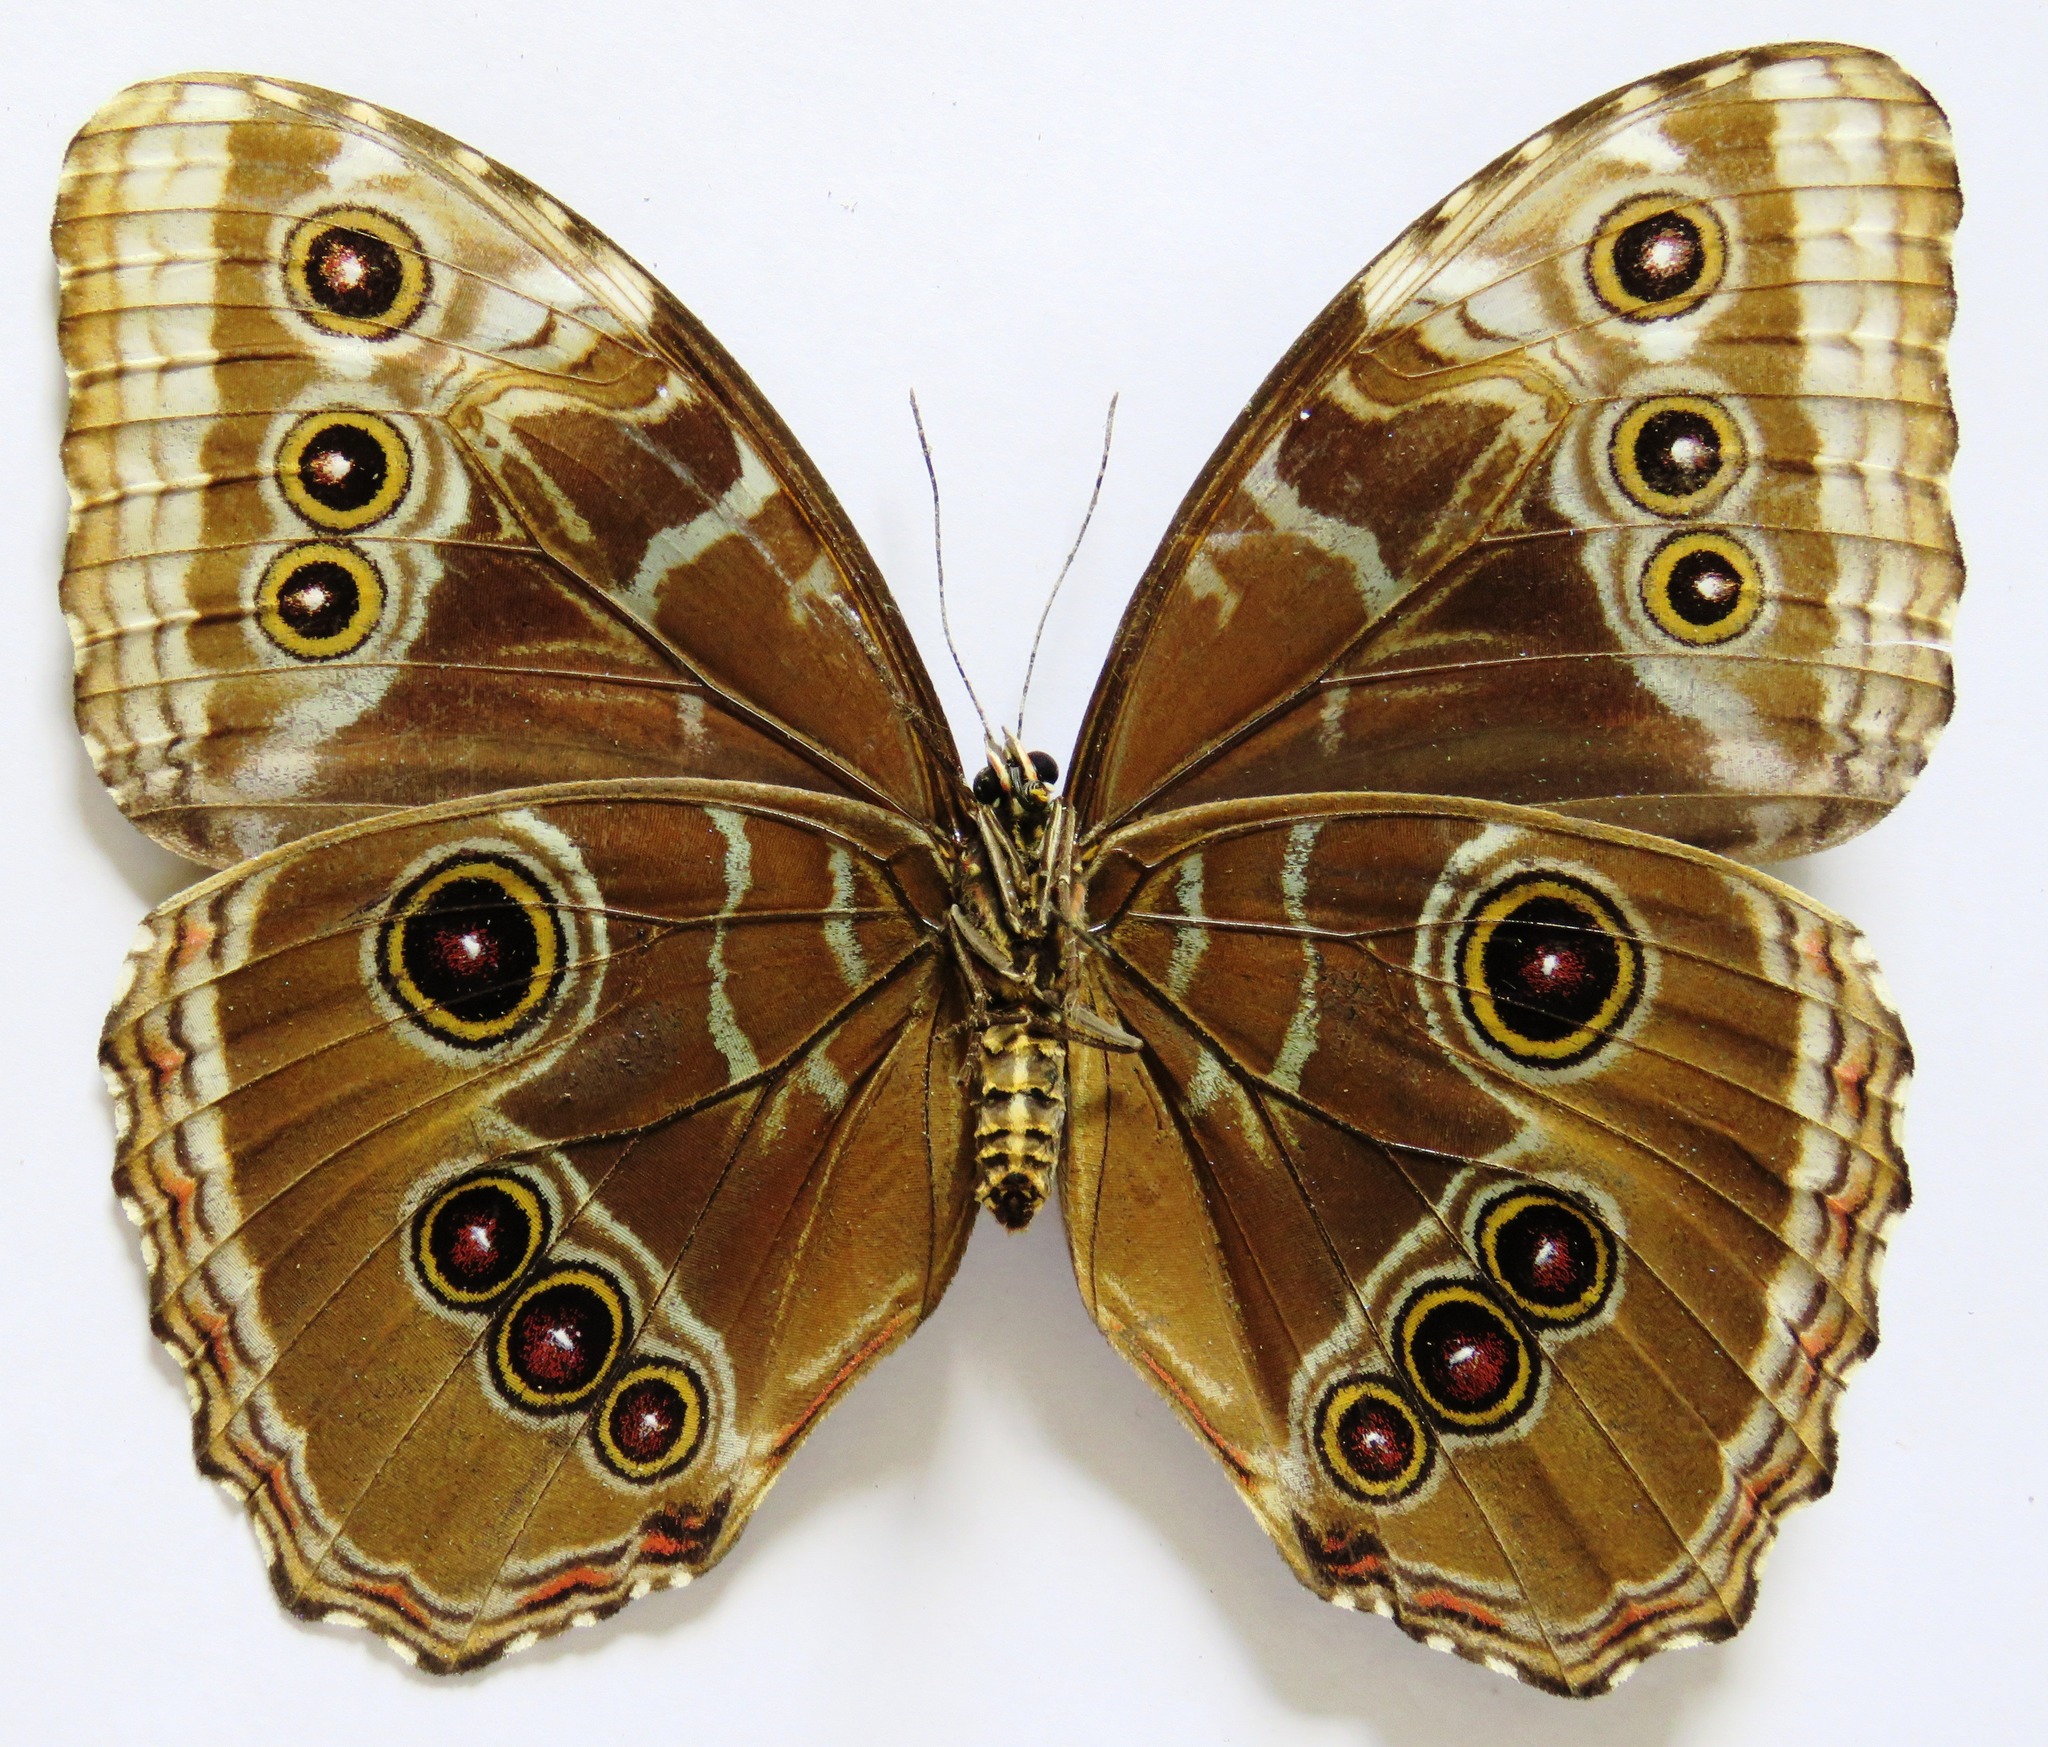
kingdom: Animalia
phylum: Arthropoda
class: Insecta
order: Lepidoptera
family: Nymphalidae
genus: Morpho
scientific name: Morpho helenor
